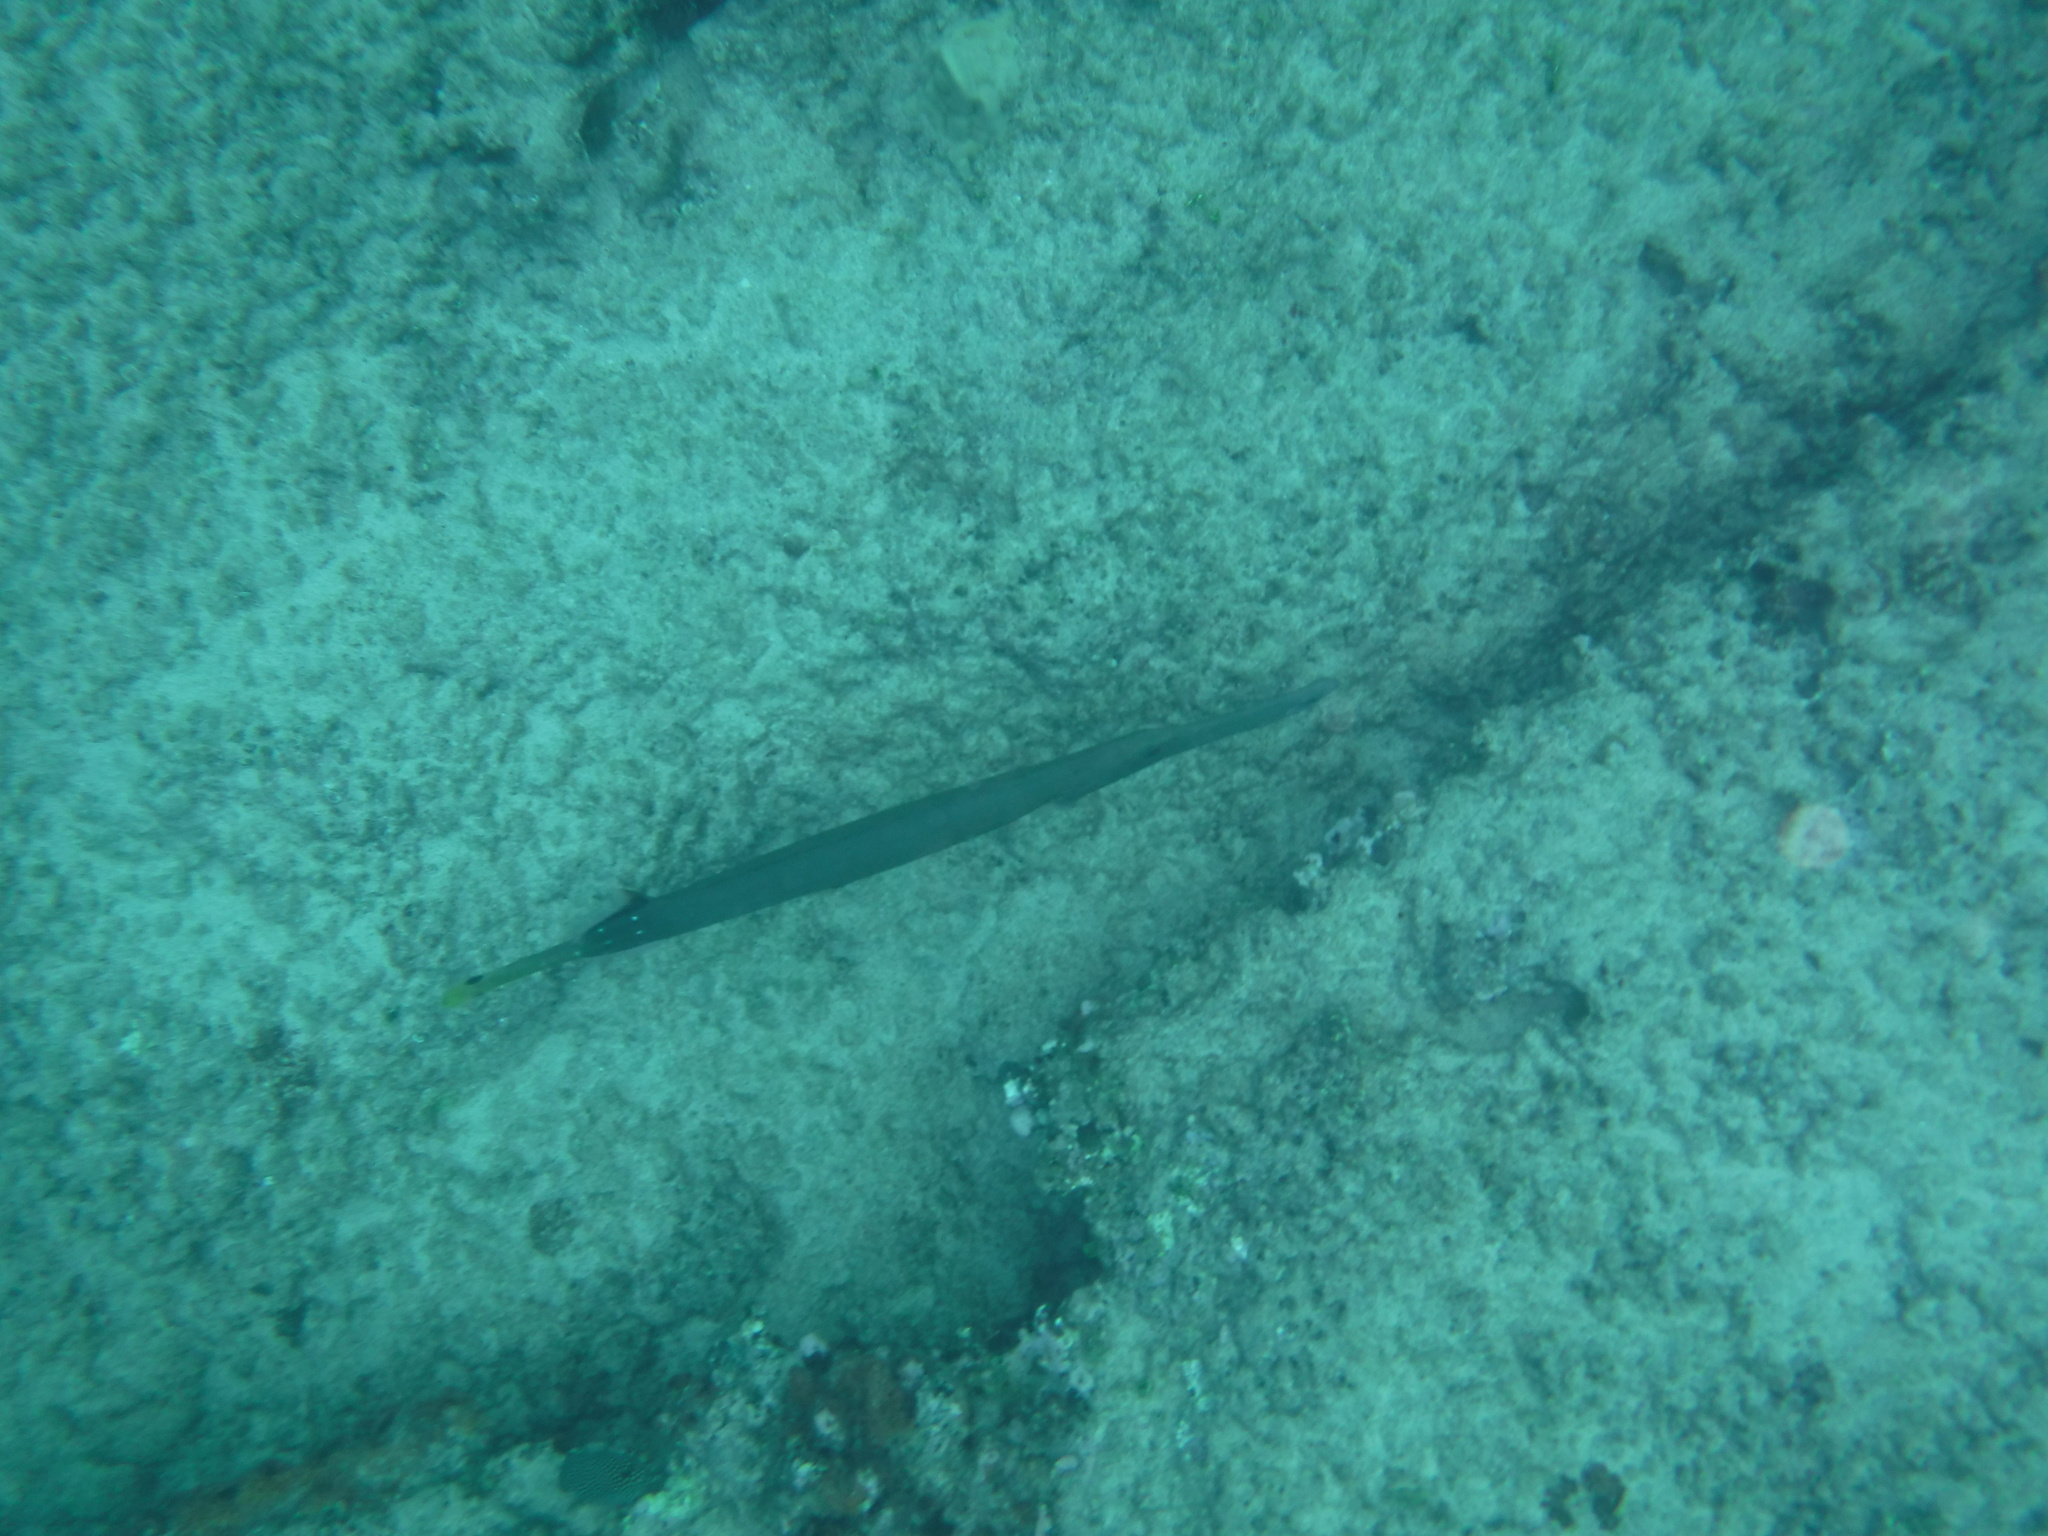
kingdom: Animalia
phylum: Chordata
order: Syngnathiformes
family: Aulostomidae
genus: Aulostomus
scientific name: Aulostomus chinensis
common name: Chinese trumpetfish
